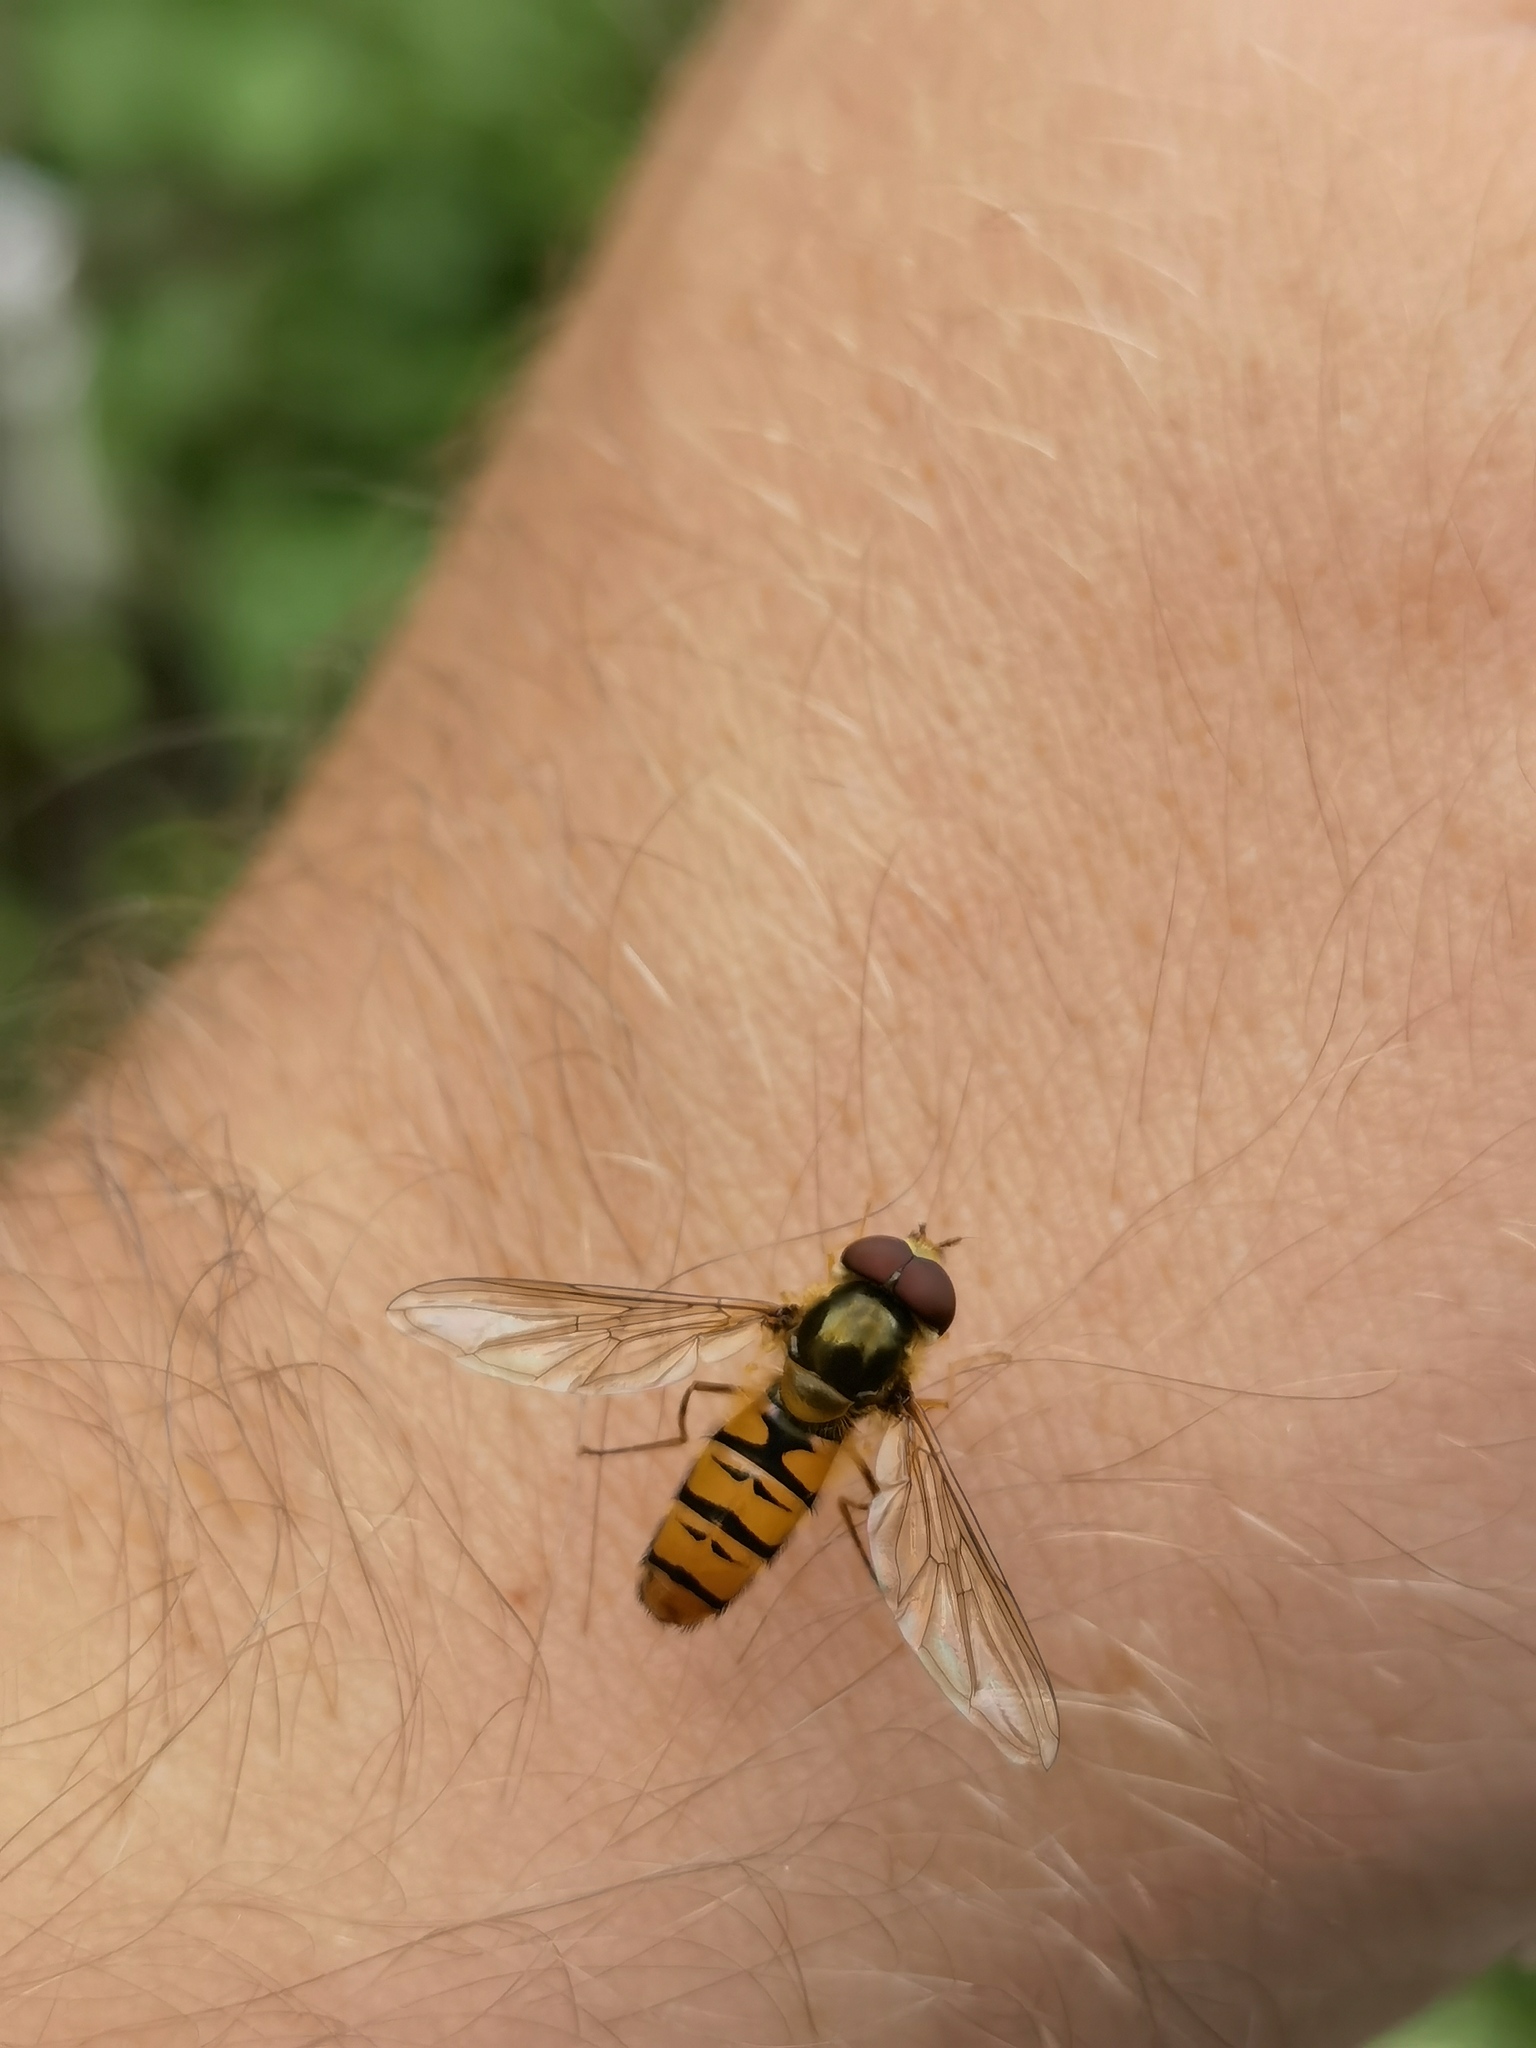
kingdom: Animalia
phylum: Arthropoda
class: Insecta
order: Diptera
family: Syrphidae
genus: Episyrphus
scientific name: Episyrphus balteatus
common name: Marmalade hoverfly
